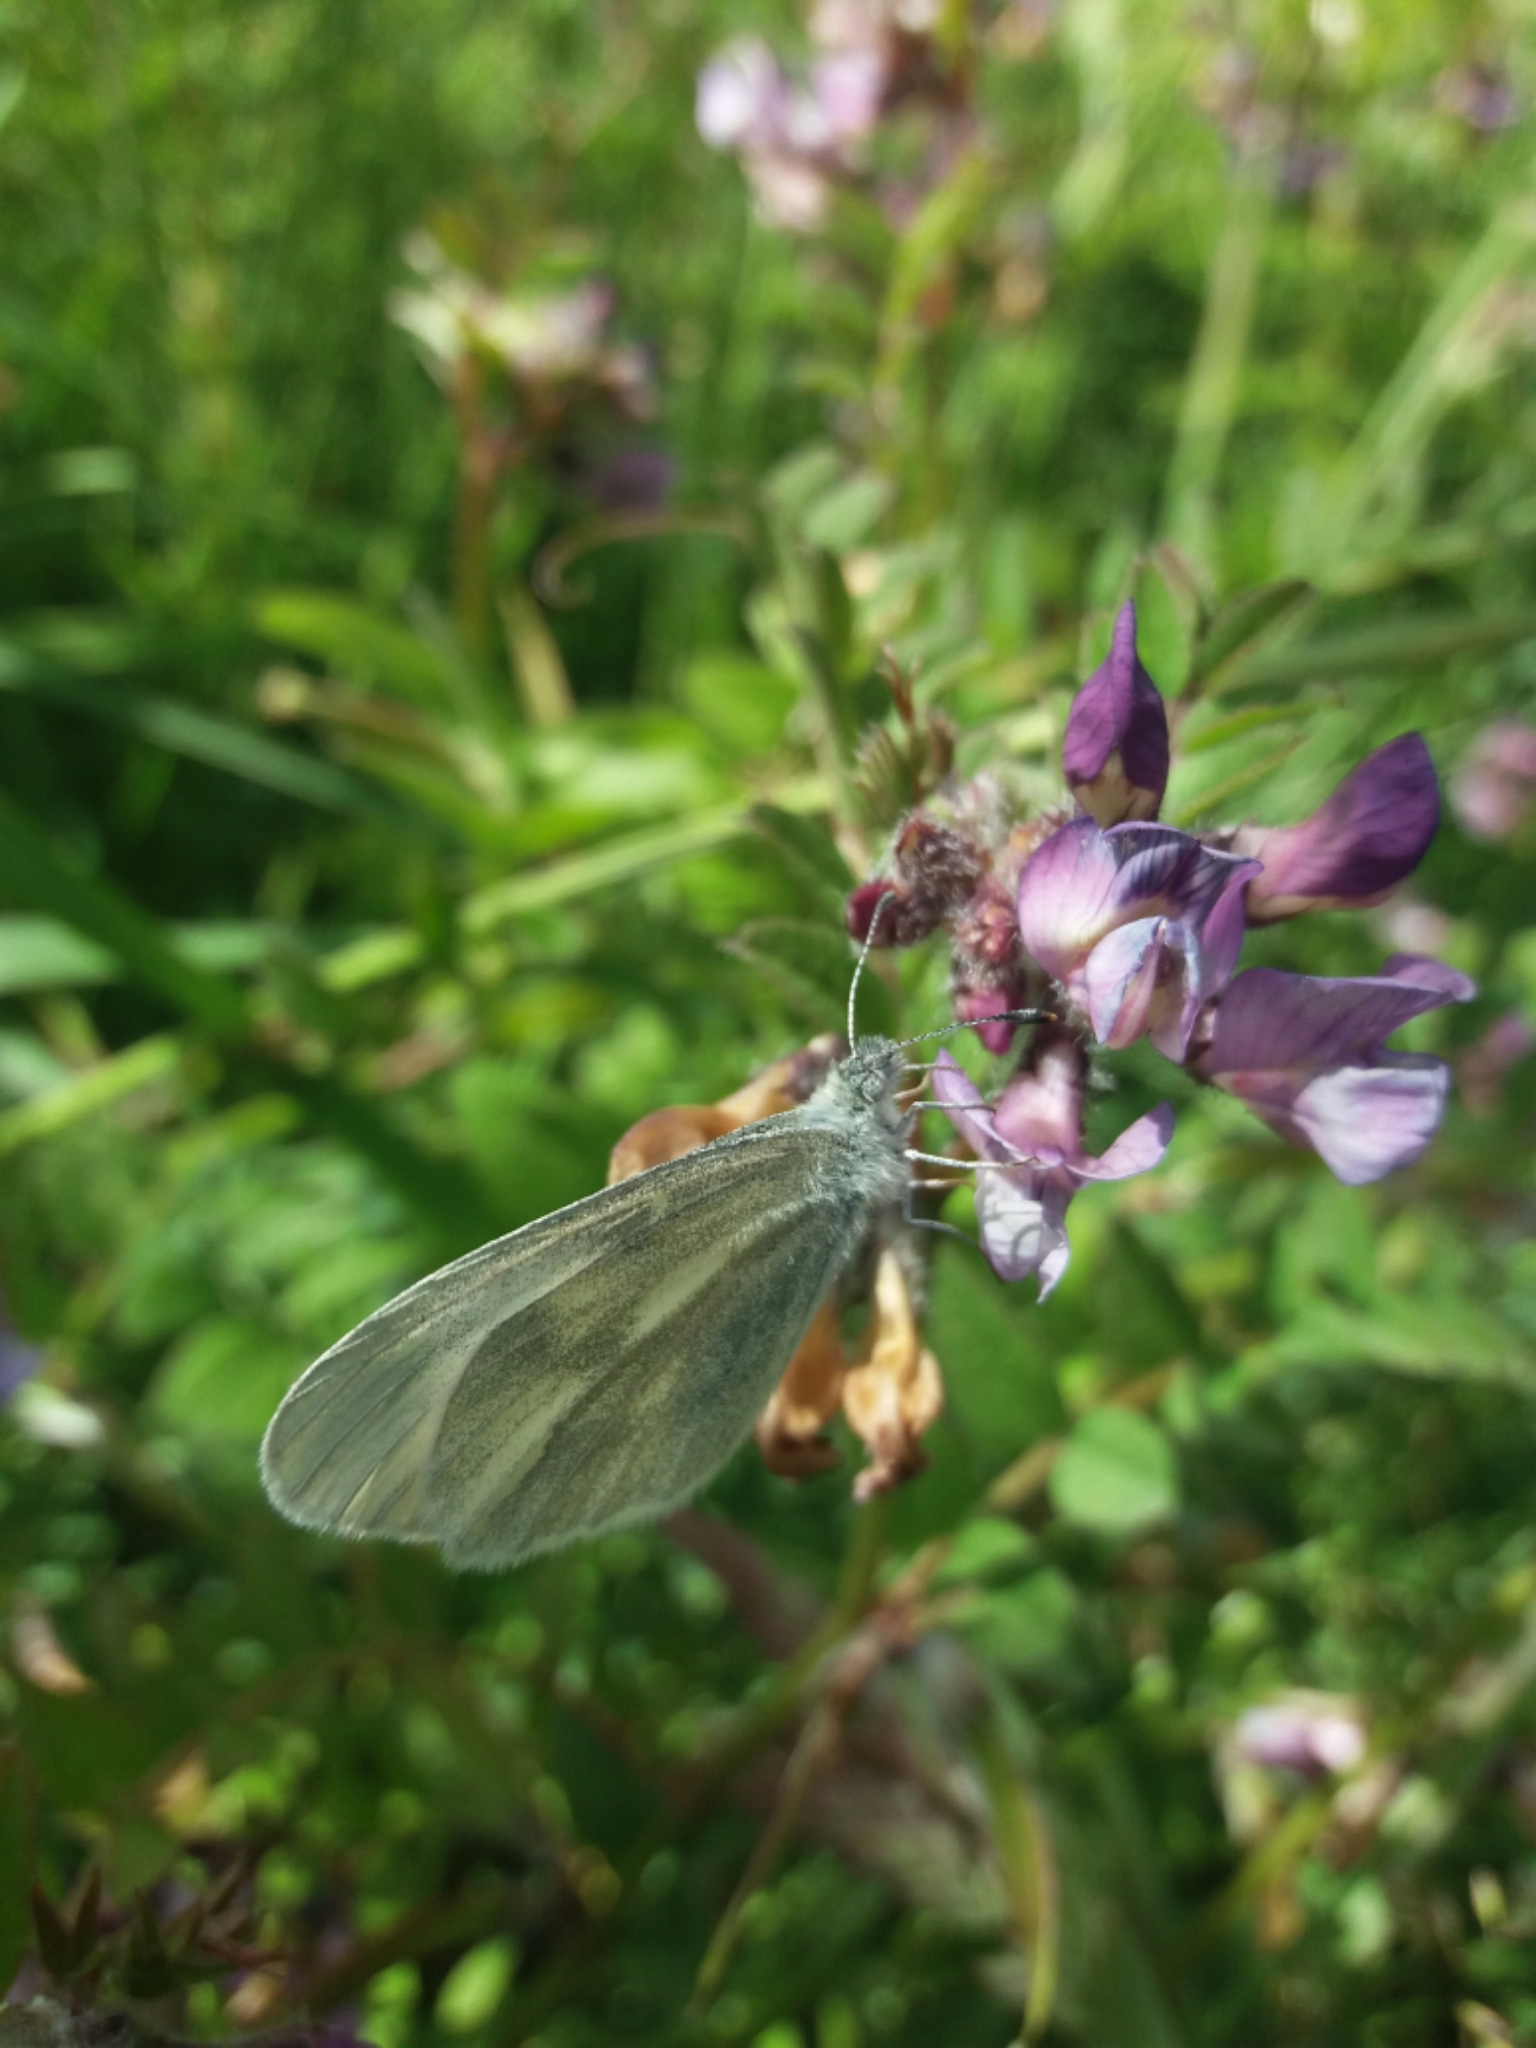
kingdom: Animalia
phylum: Arthropoda
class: Insecta
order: Lepidoptera
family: Pieridae
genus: Leptidea
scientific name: Leptidea juvernica
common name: Cryptic wood white
